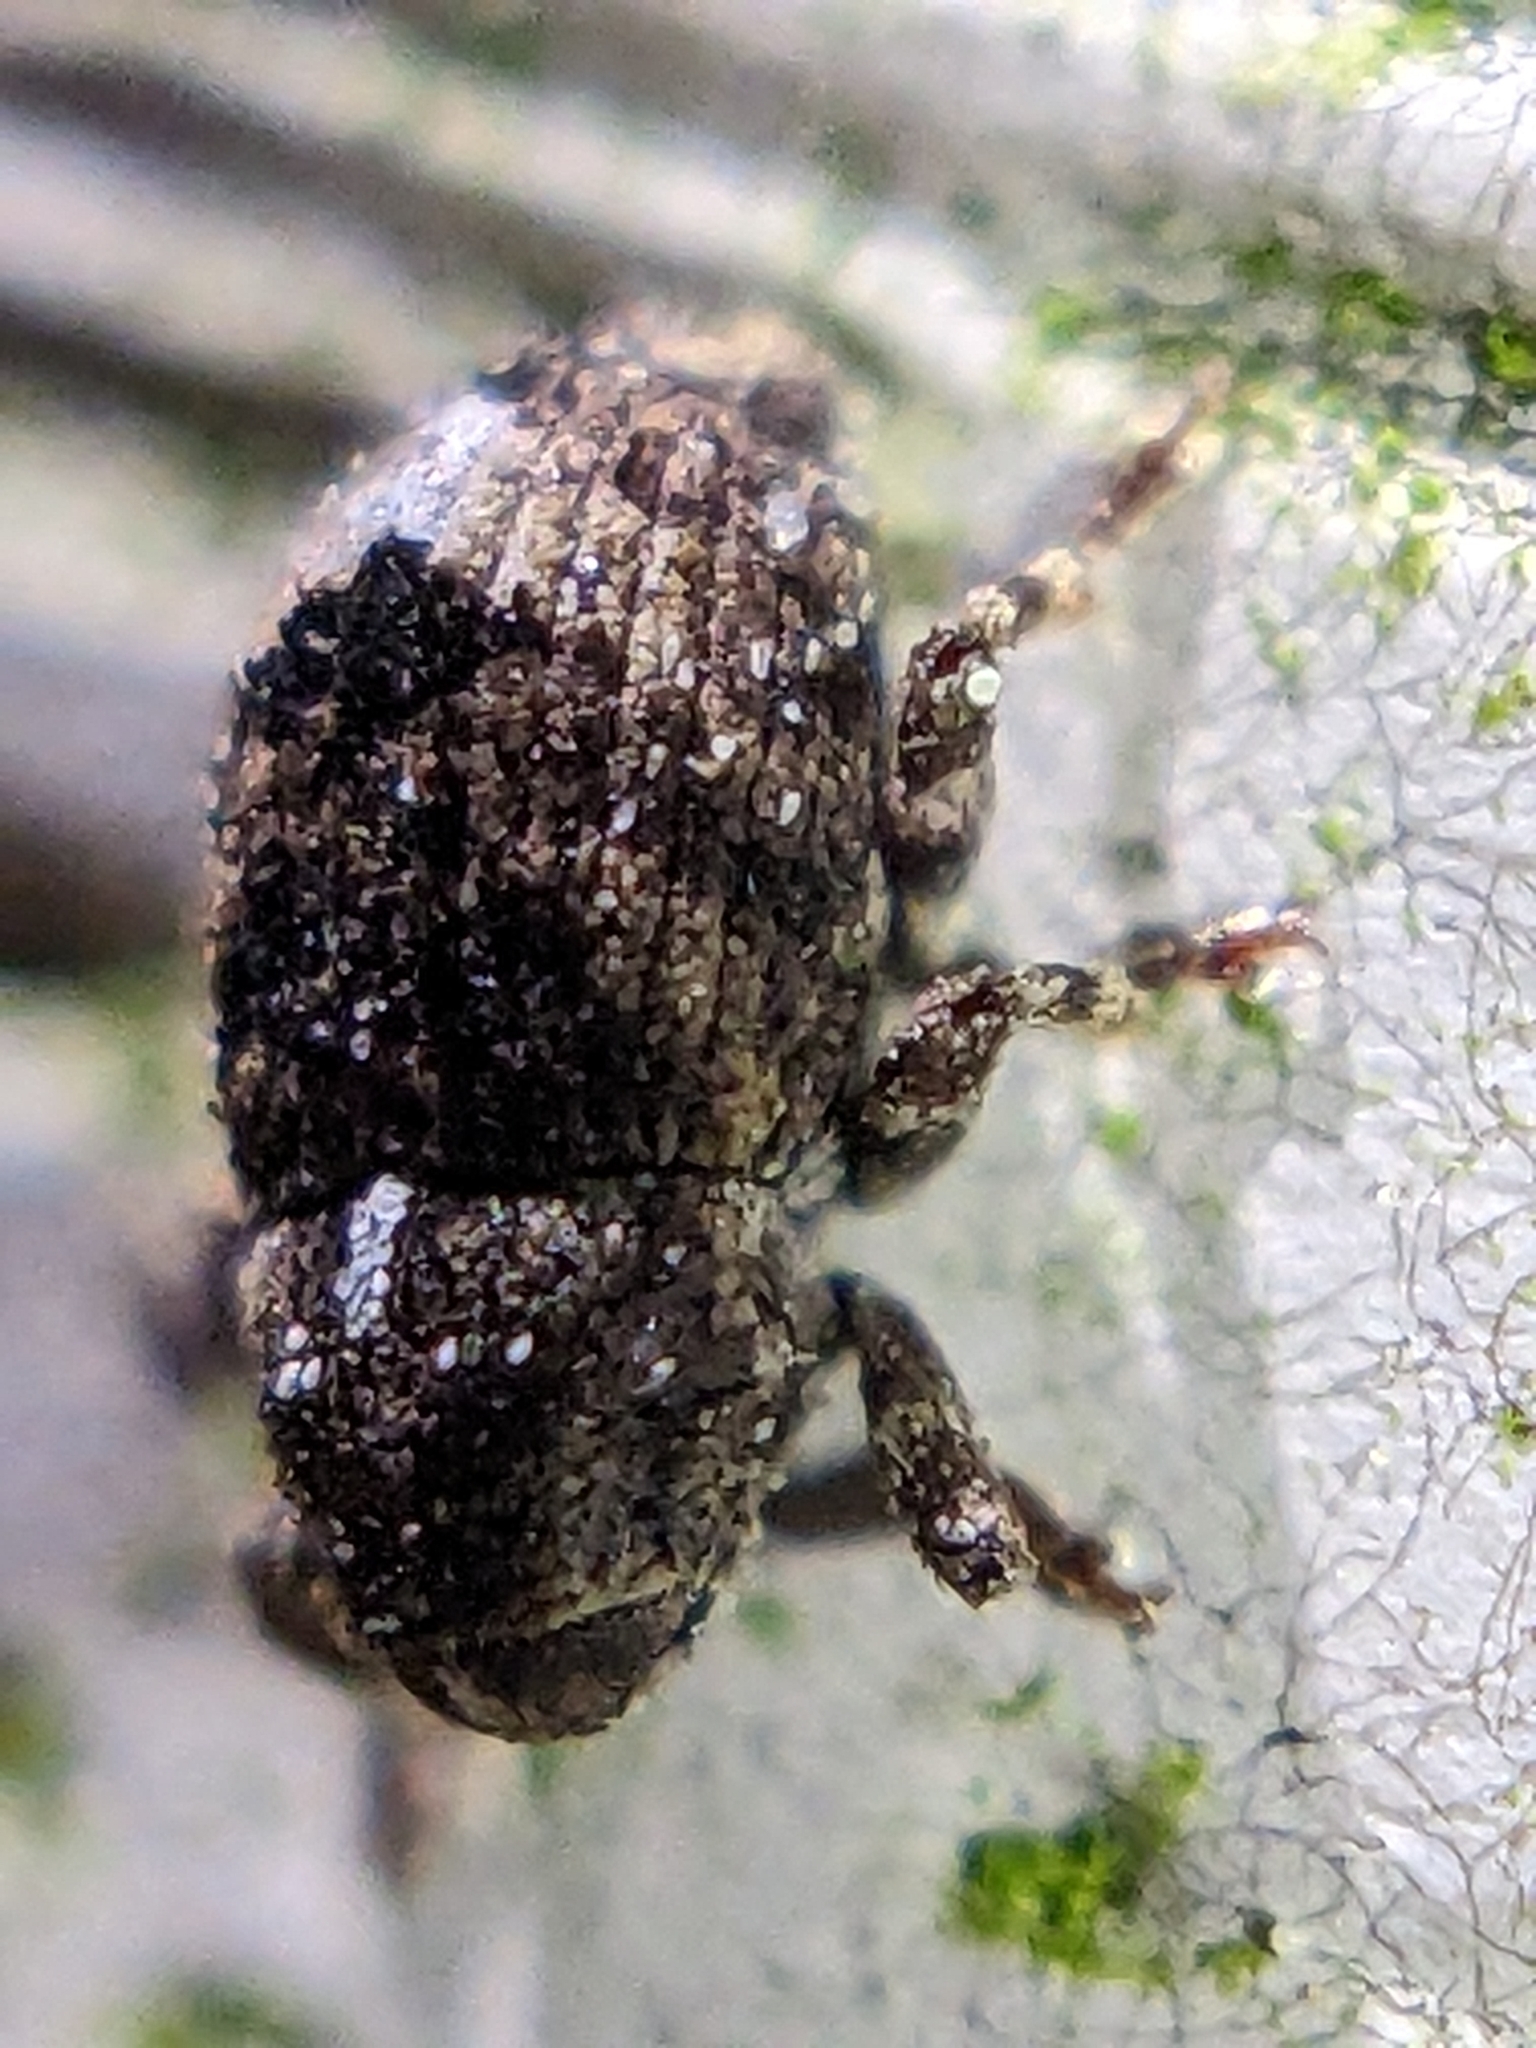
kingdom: Animalia
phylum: Arthropoda
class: Insecta
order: Coleoptera
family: Curculionidae
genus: Acalles
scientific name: Acalles minutissimus
